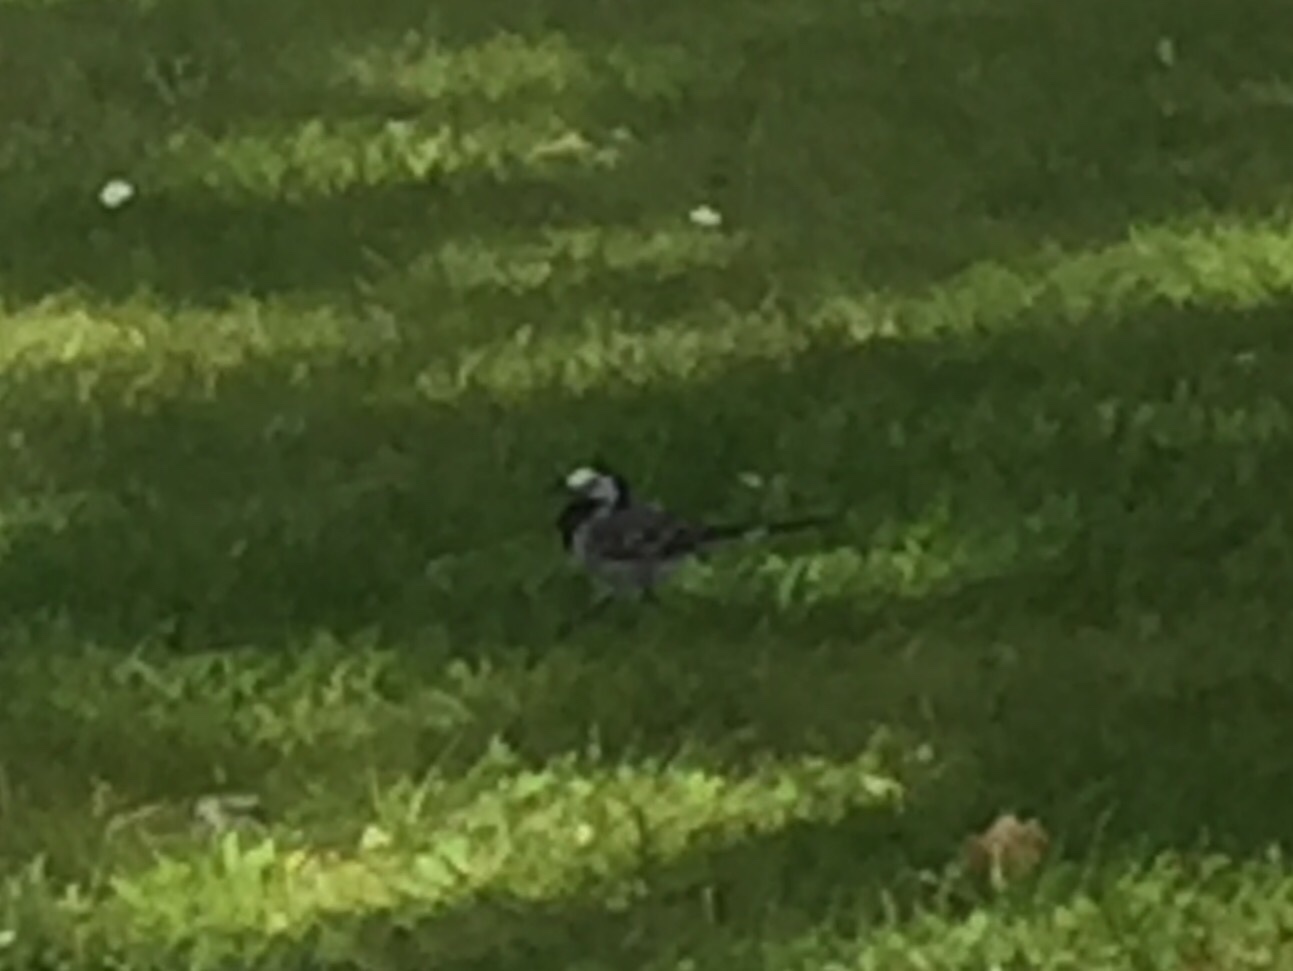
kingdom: Animalia
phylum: Chordata
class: Aves
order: Passeriformes
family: Motacillidae
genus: Motacilla
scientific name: Motacilla alba
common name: White wagtail
